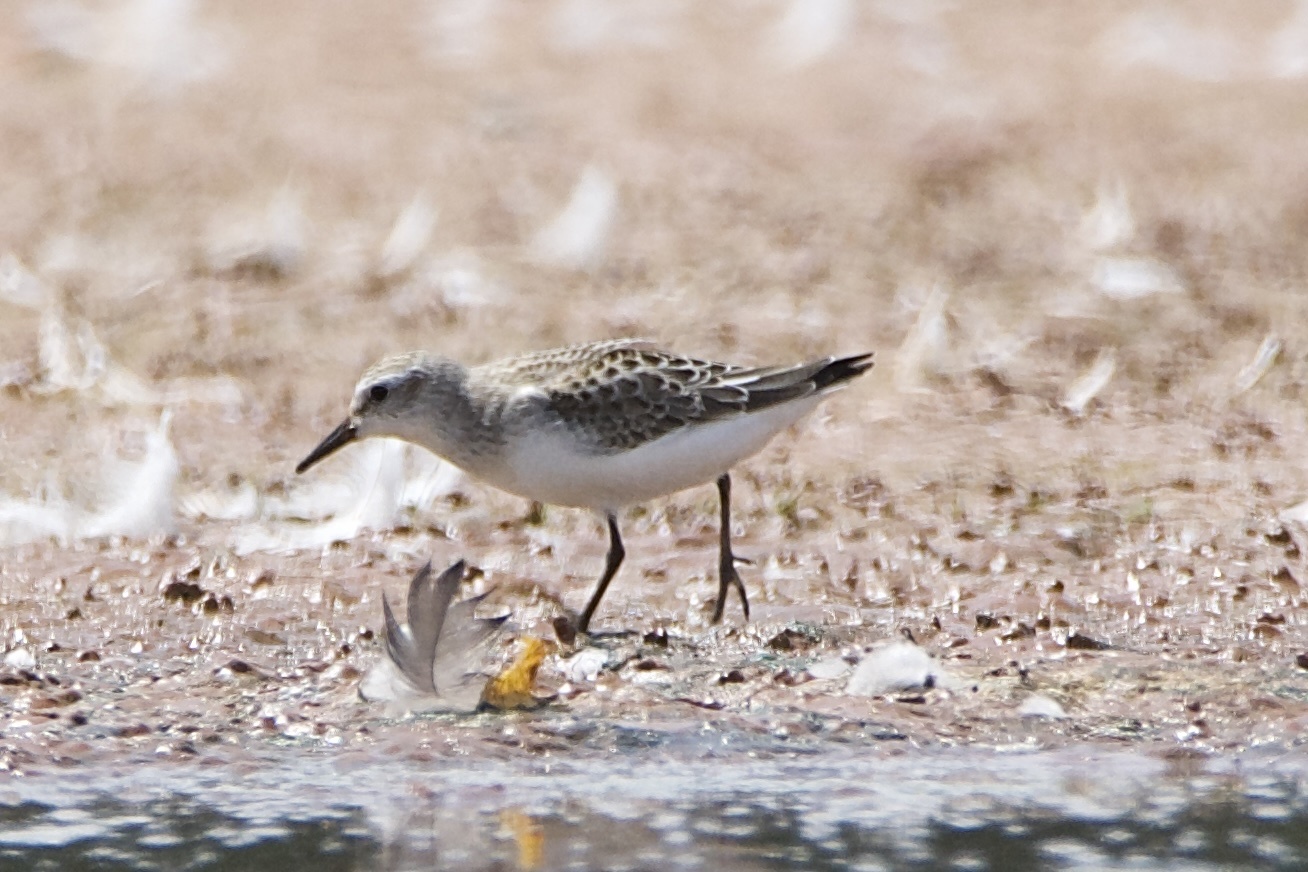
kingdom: Animalia
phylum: Chordata
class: Aves
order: Charadriiformes
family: Scolopacidae
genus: Calidris
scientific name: Calidris pusilla
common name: Semipalmated sandpiper
